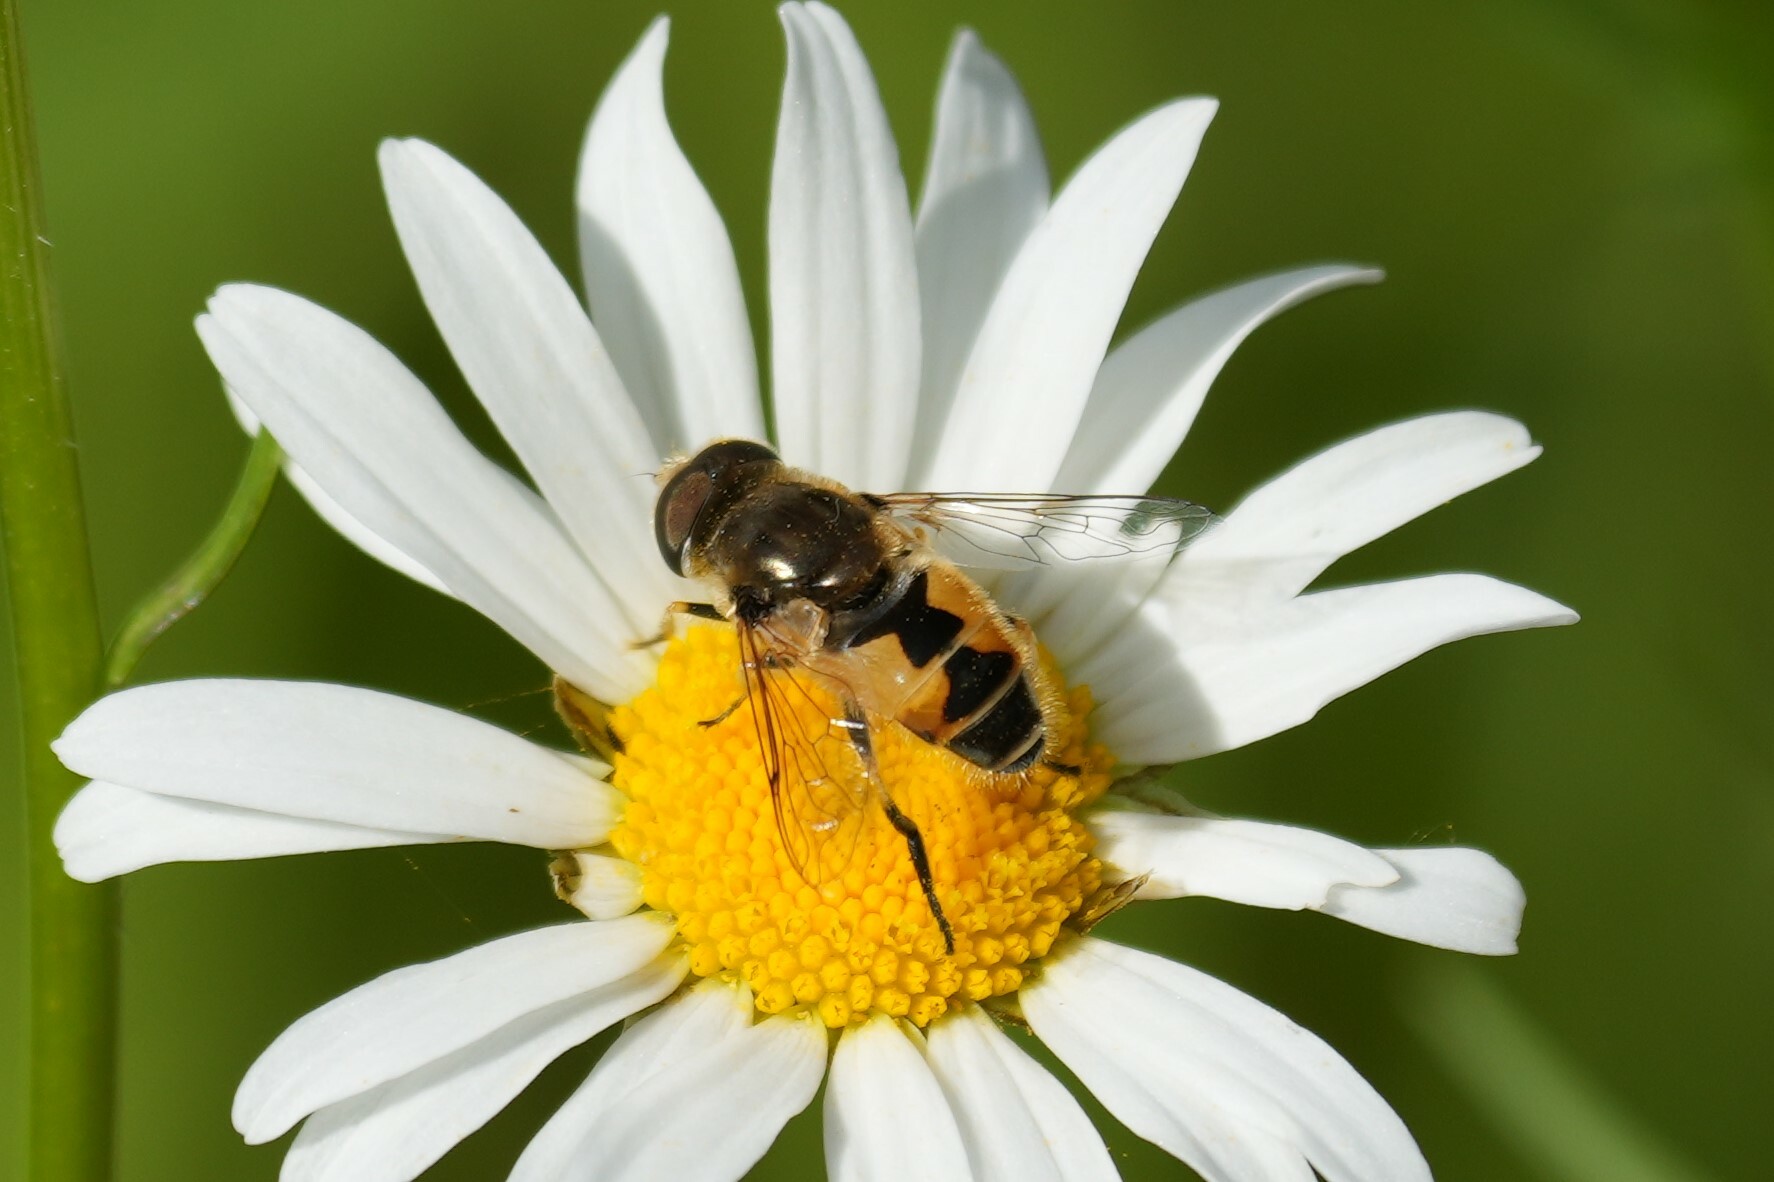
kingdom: Animalia
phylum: Arthropoda
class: Insecta
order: Diptera
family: Syrphidae
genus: Eristalis
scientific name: Eristalis arbustorum
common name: Hover fly
